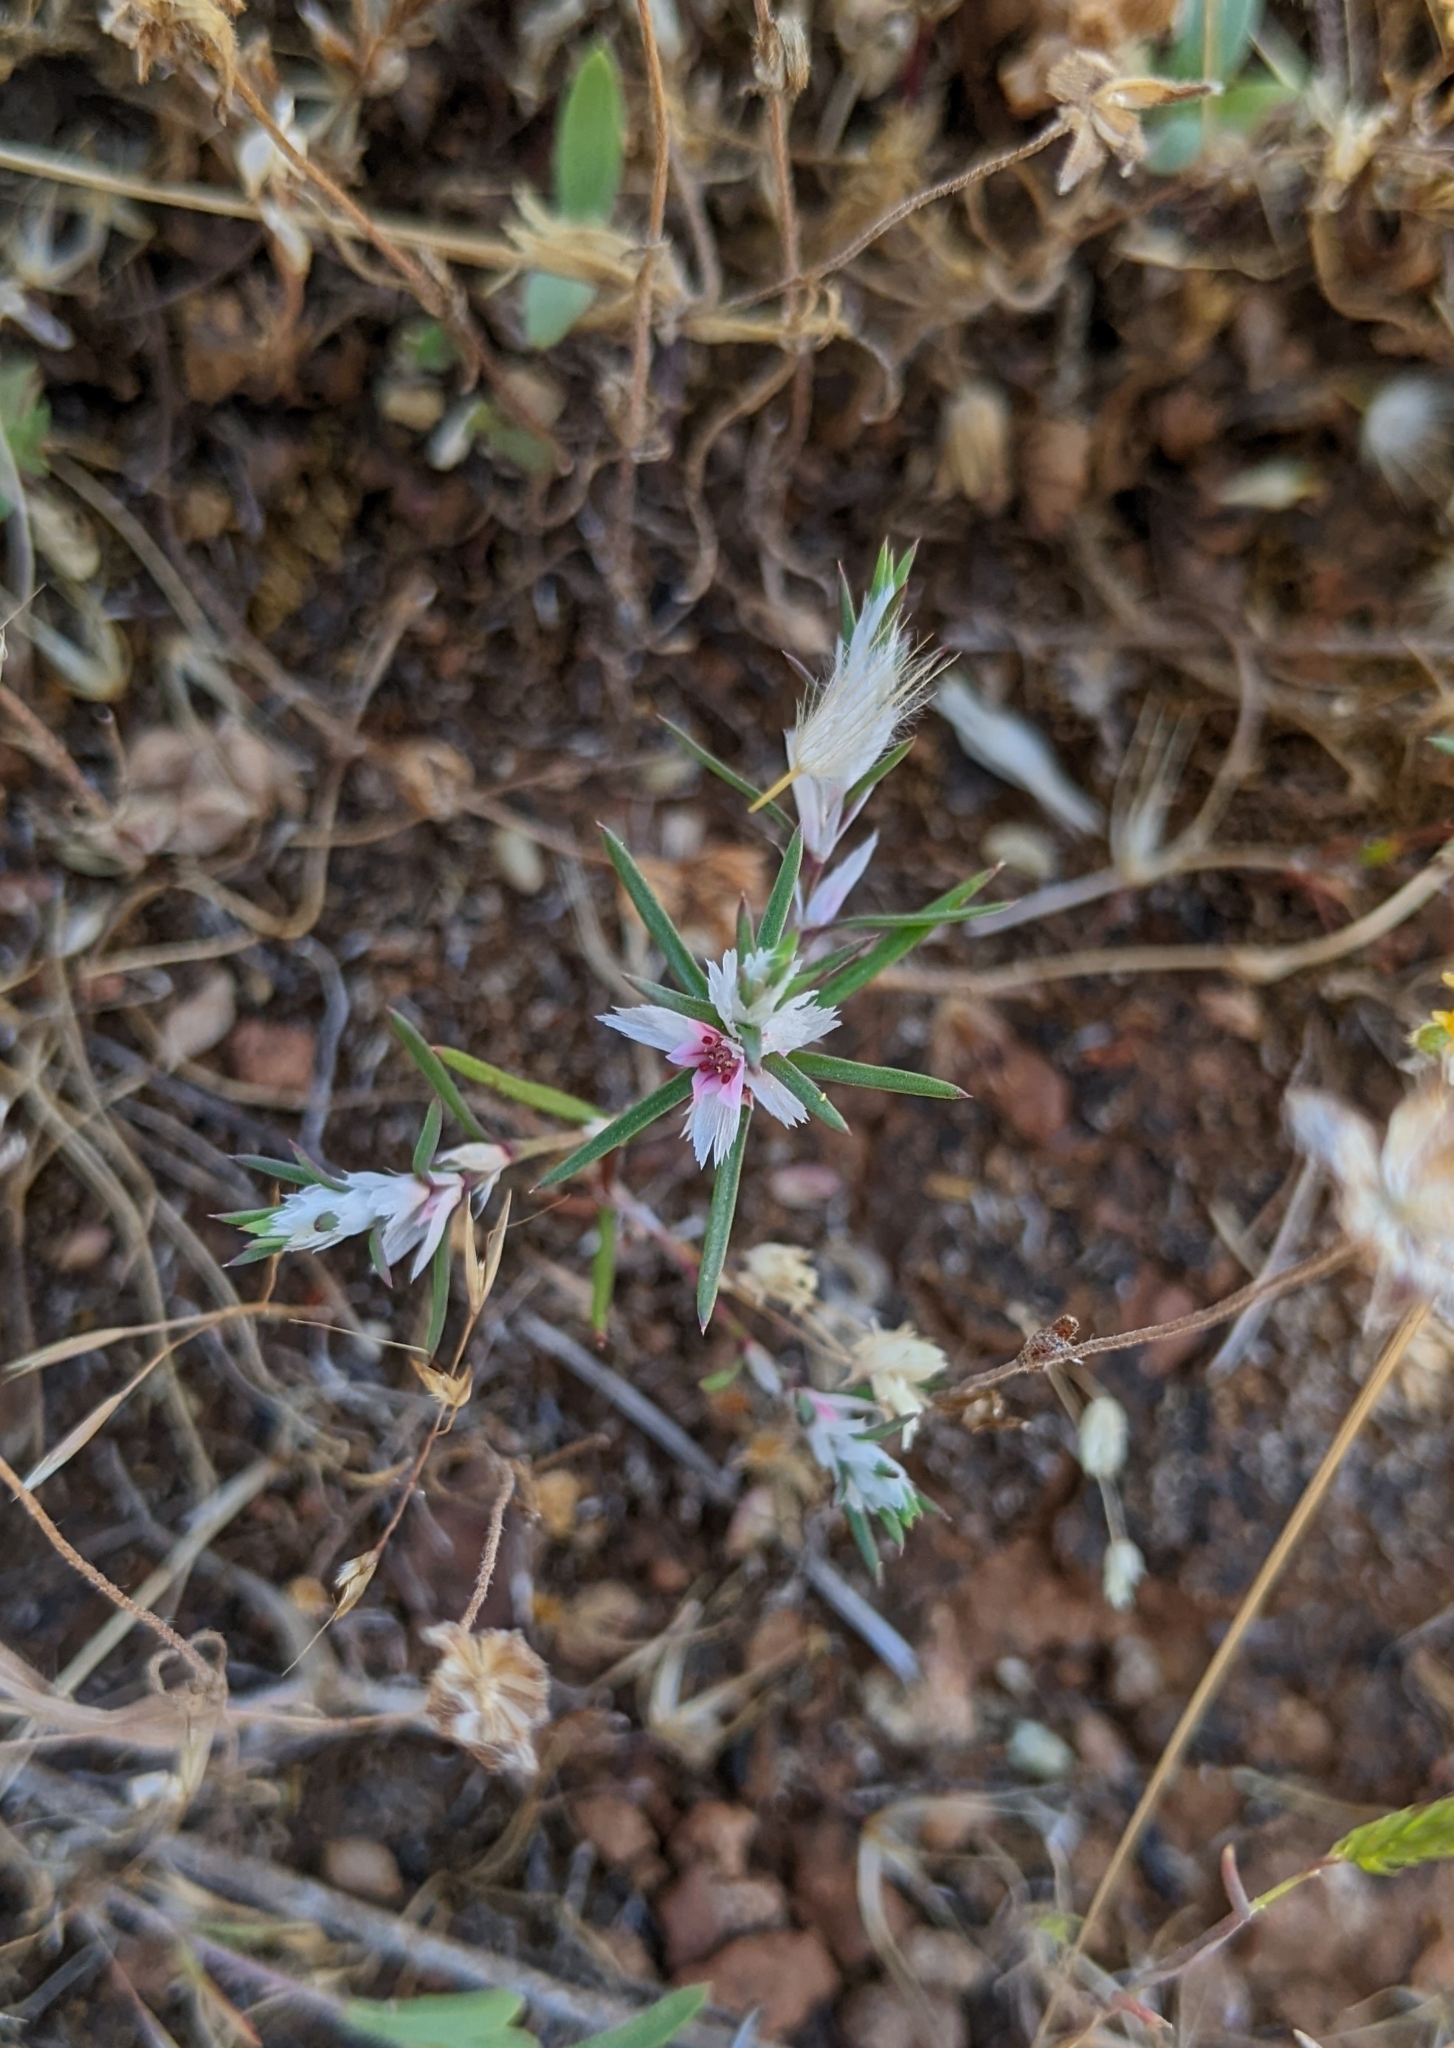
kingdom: Plantae
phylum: Tracheophyta
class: Magnoliopsida
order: Caryophyllales
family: Polygonaceae
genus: Polygonum
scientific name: Polygonum bidwelliae
